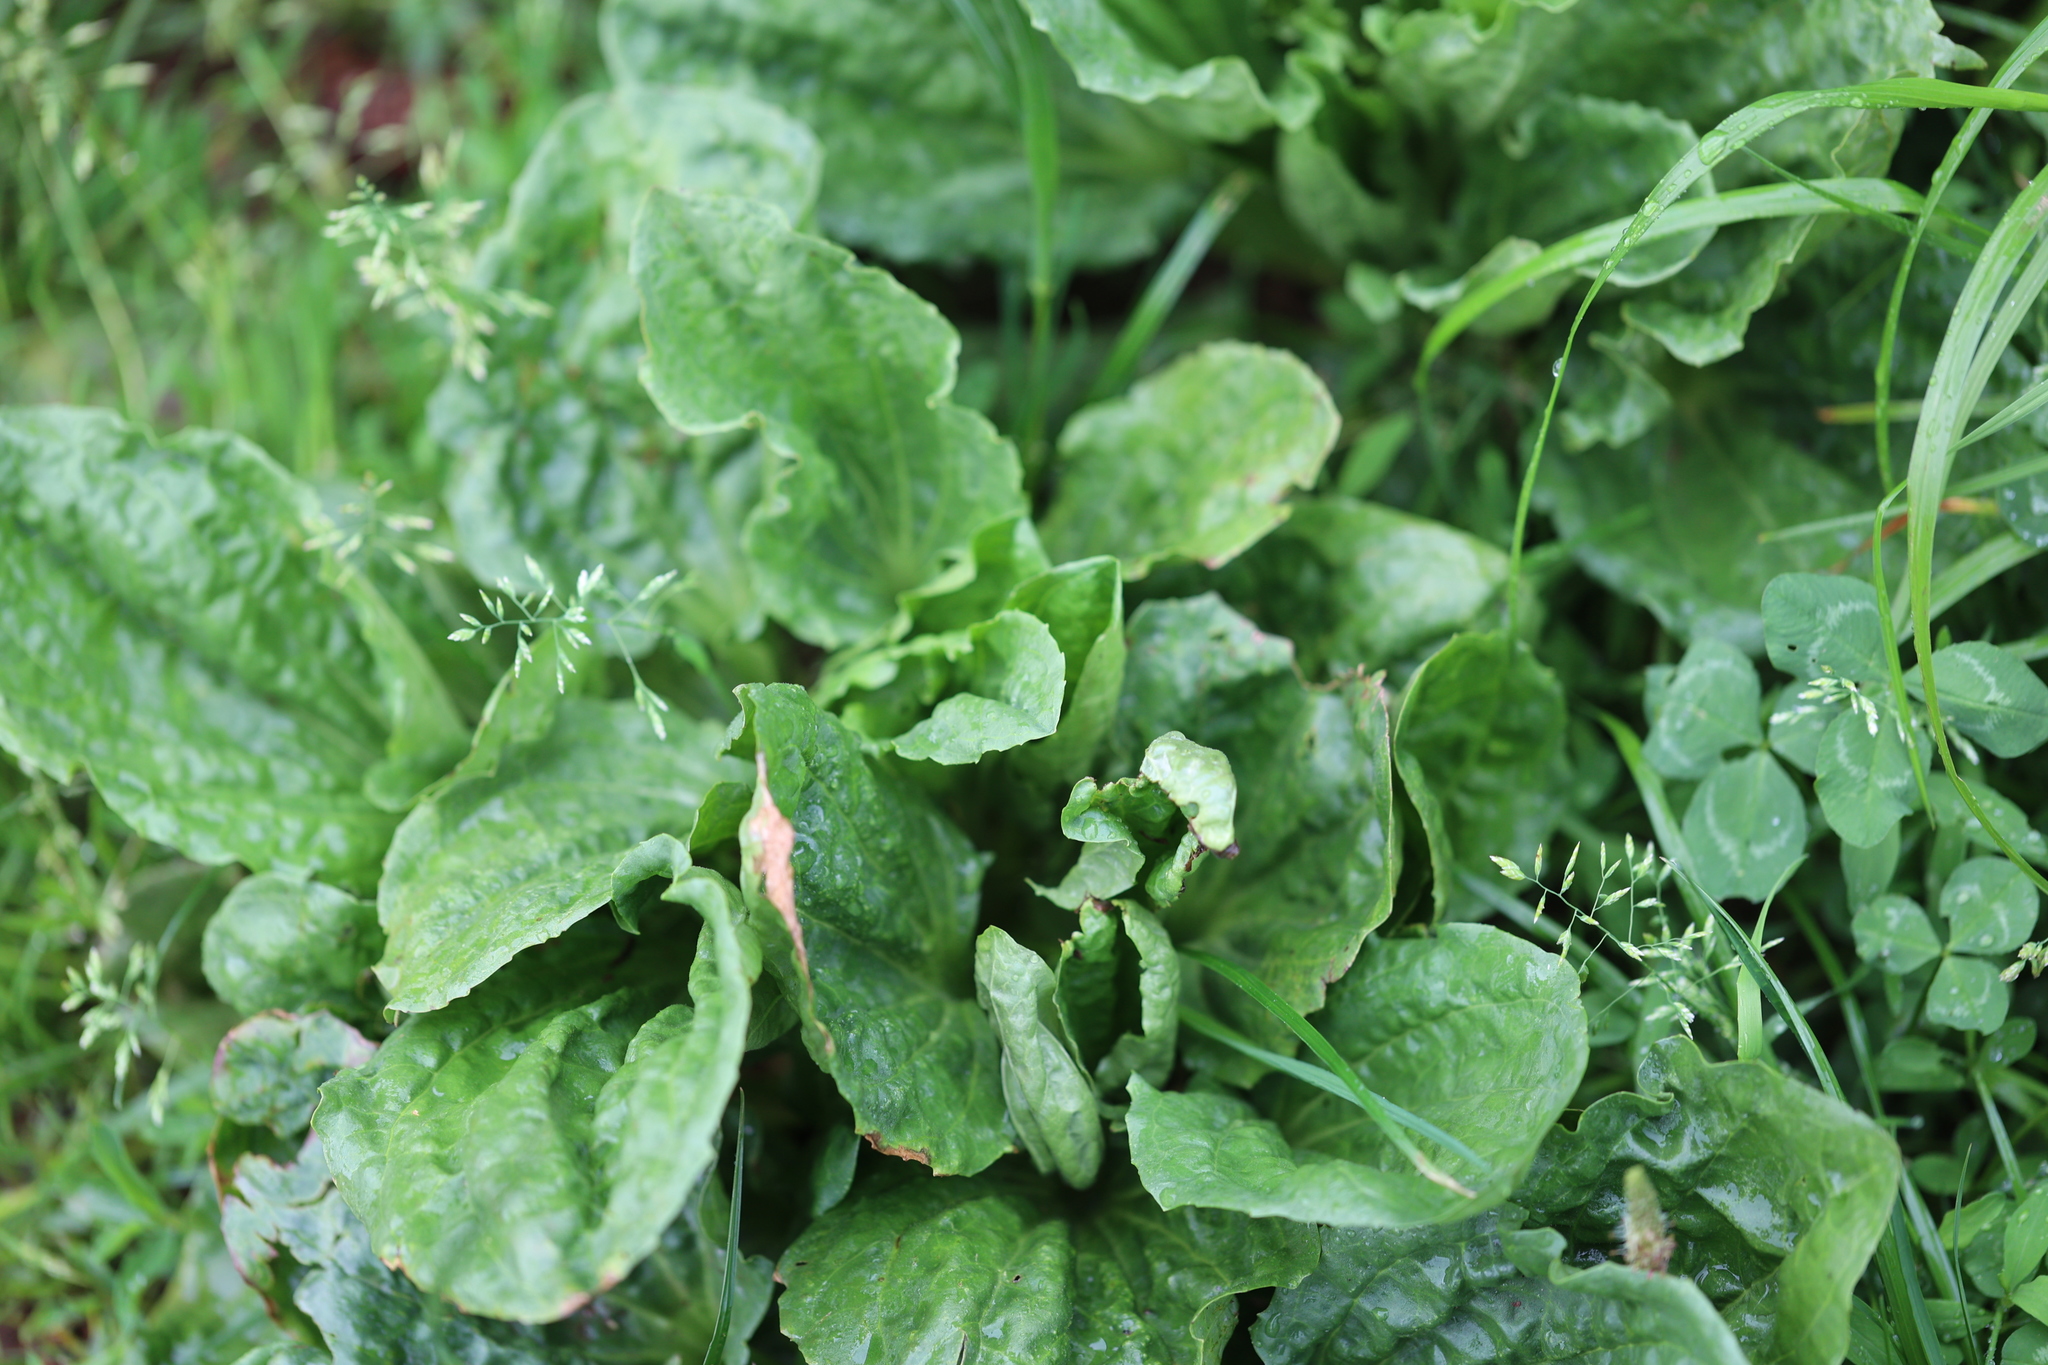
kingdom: Plantae
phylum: Tracheophyta
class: Magnoliopsida
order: Lamiales
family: Plantaginaceae
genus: Plantago
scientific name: Plantago major
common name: Common plantain
